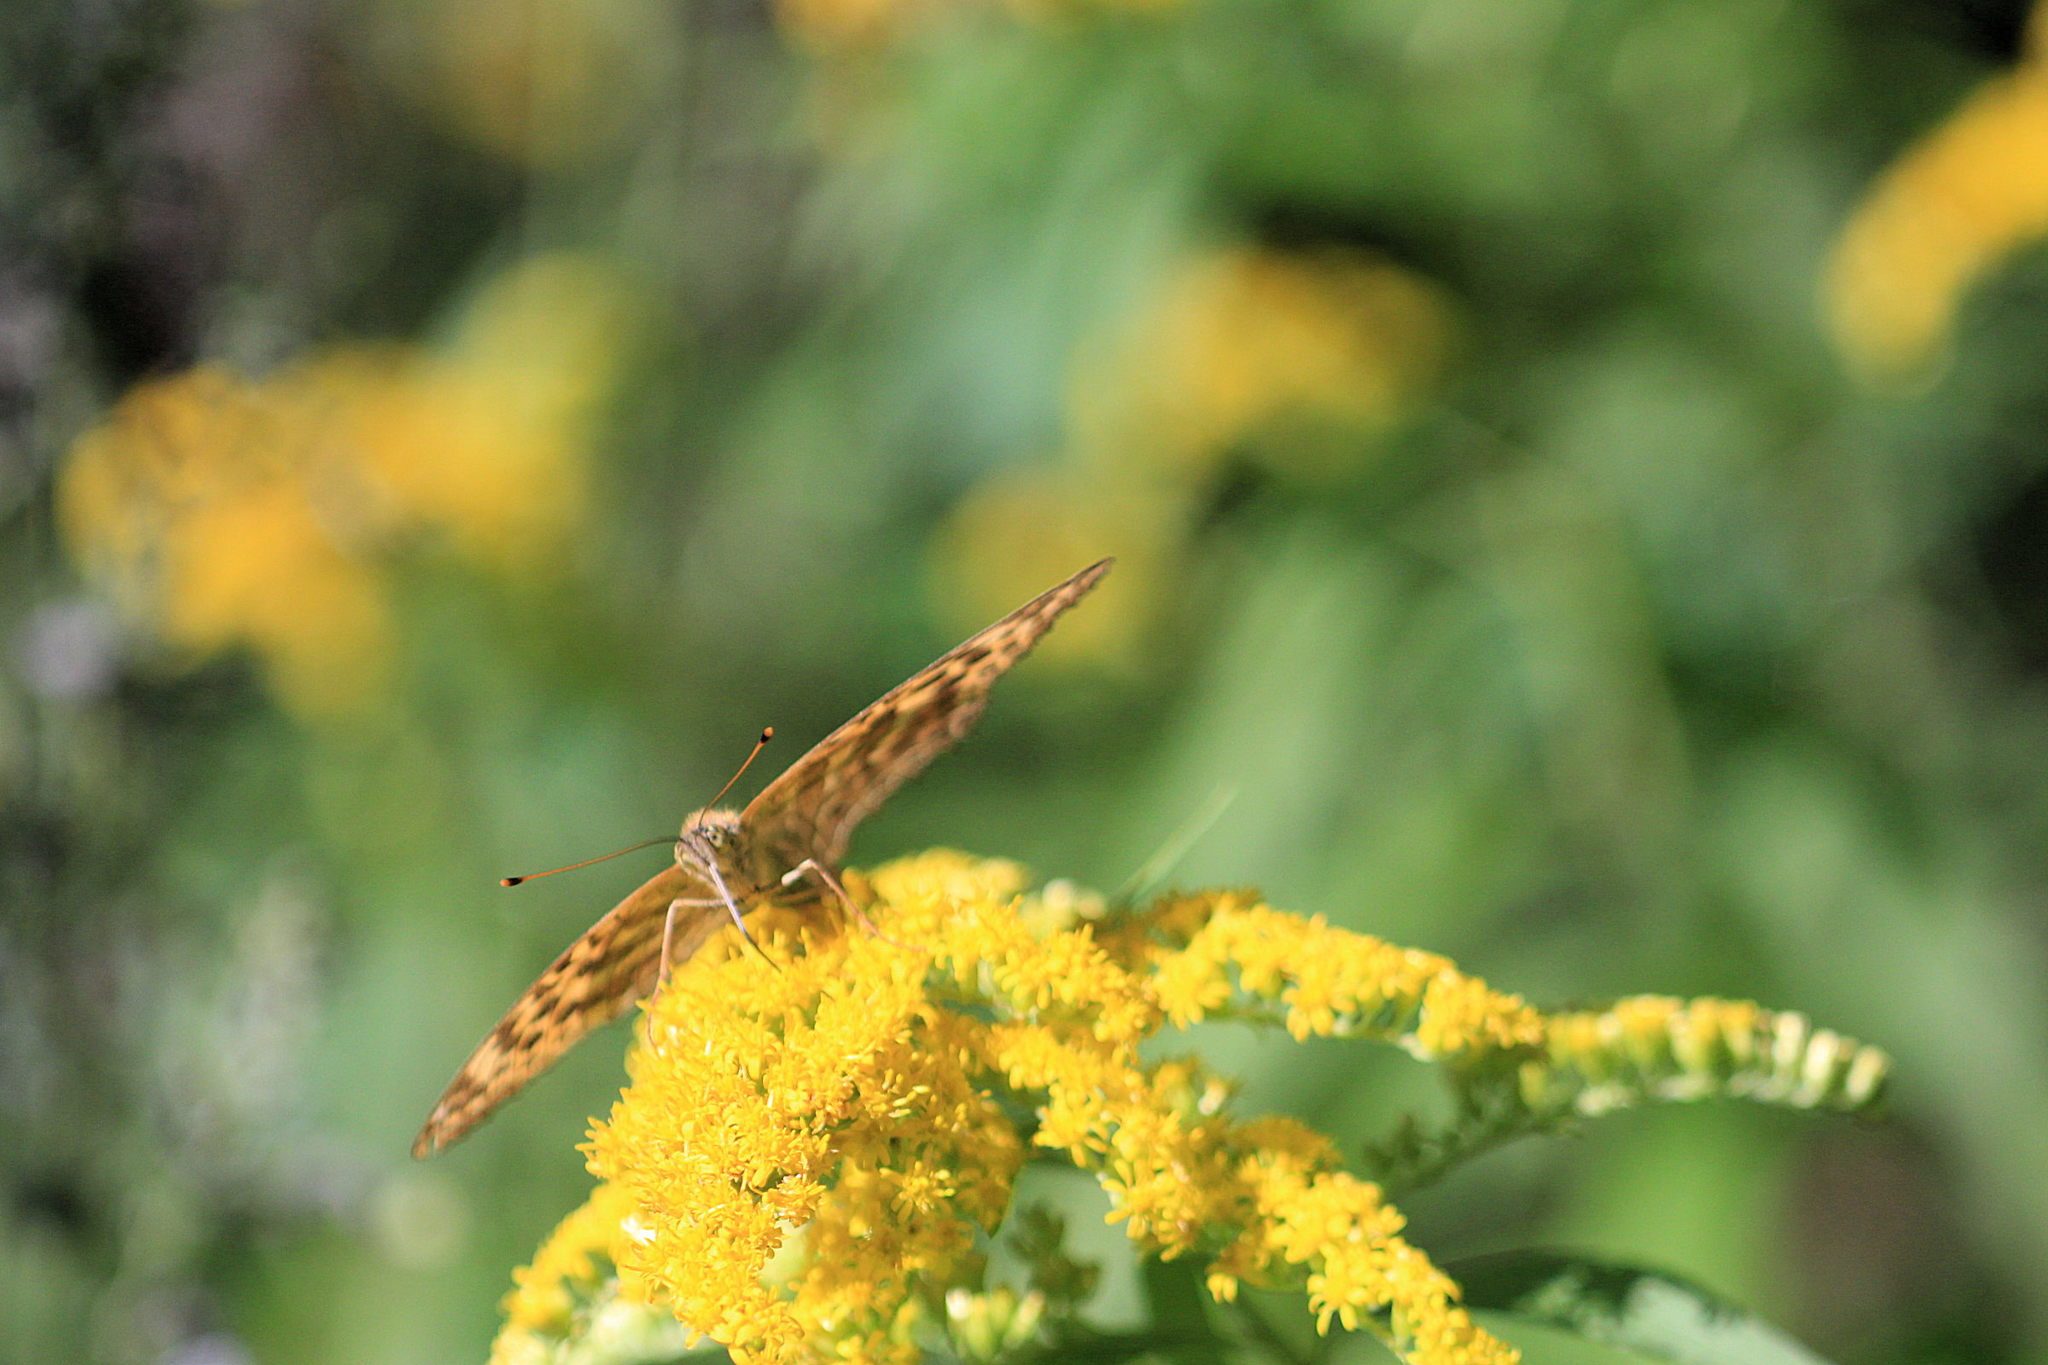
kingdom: Animalia
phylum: Arthropoda
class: Insecta
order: Lepidoptera
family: Nymphalidae
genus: Argynnis
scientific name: Argynnis paphia
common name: Silver-washed fritillary
